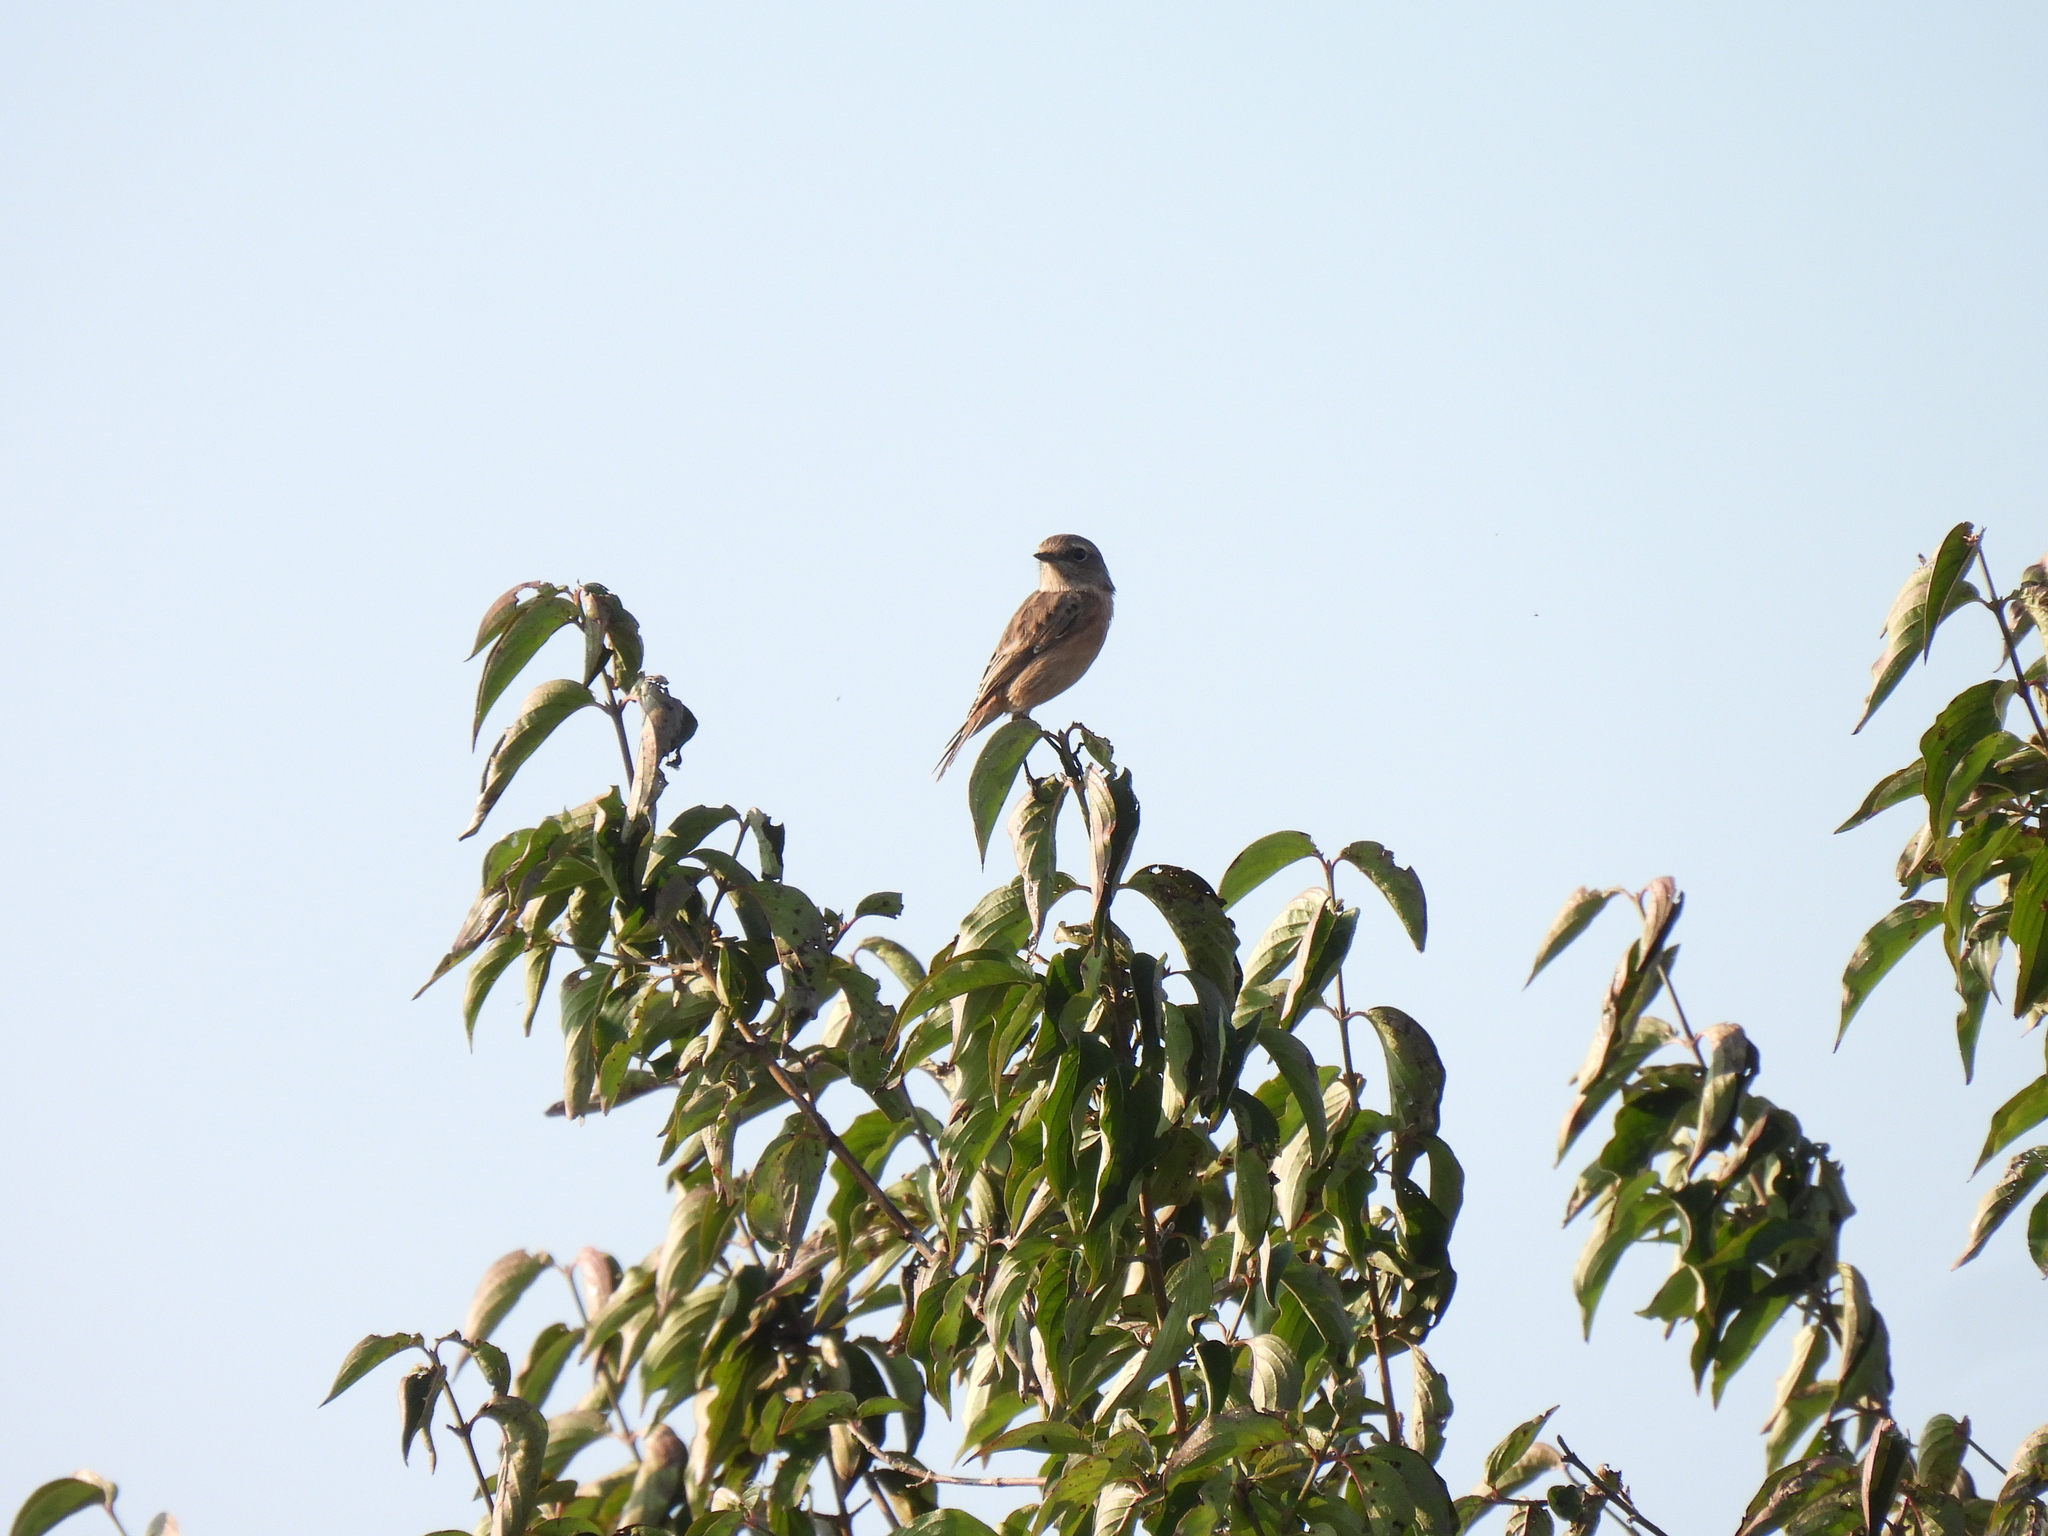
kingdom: Animalia
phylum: Chordata
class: Aves
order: Passeriformes
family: Muscicapidae
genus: Saxicola
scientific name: Saxicola rubicola
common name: European stonechat
